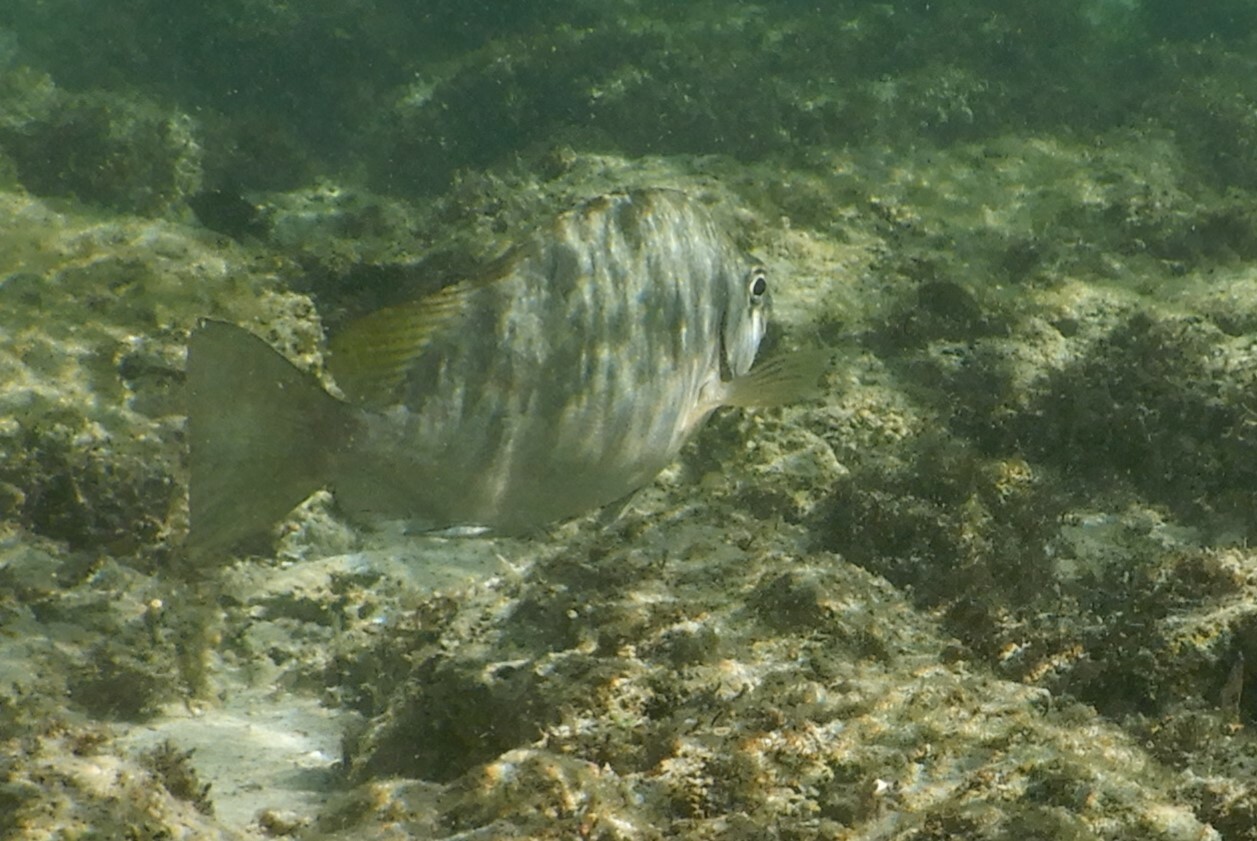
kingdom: Animalia
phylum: Chordata
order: Perciformes
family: Siganidae
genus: Siganus
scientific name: Siganus luridus
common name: Dusky spinefoot
